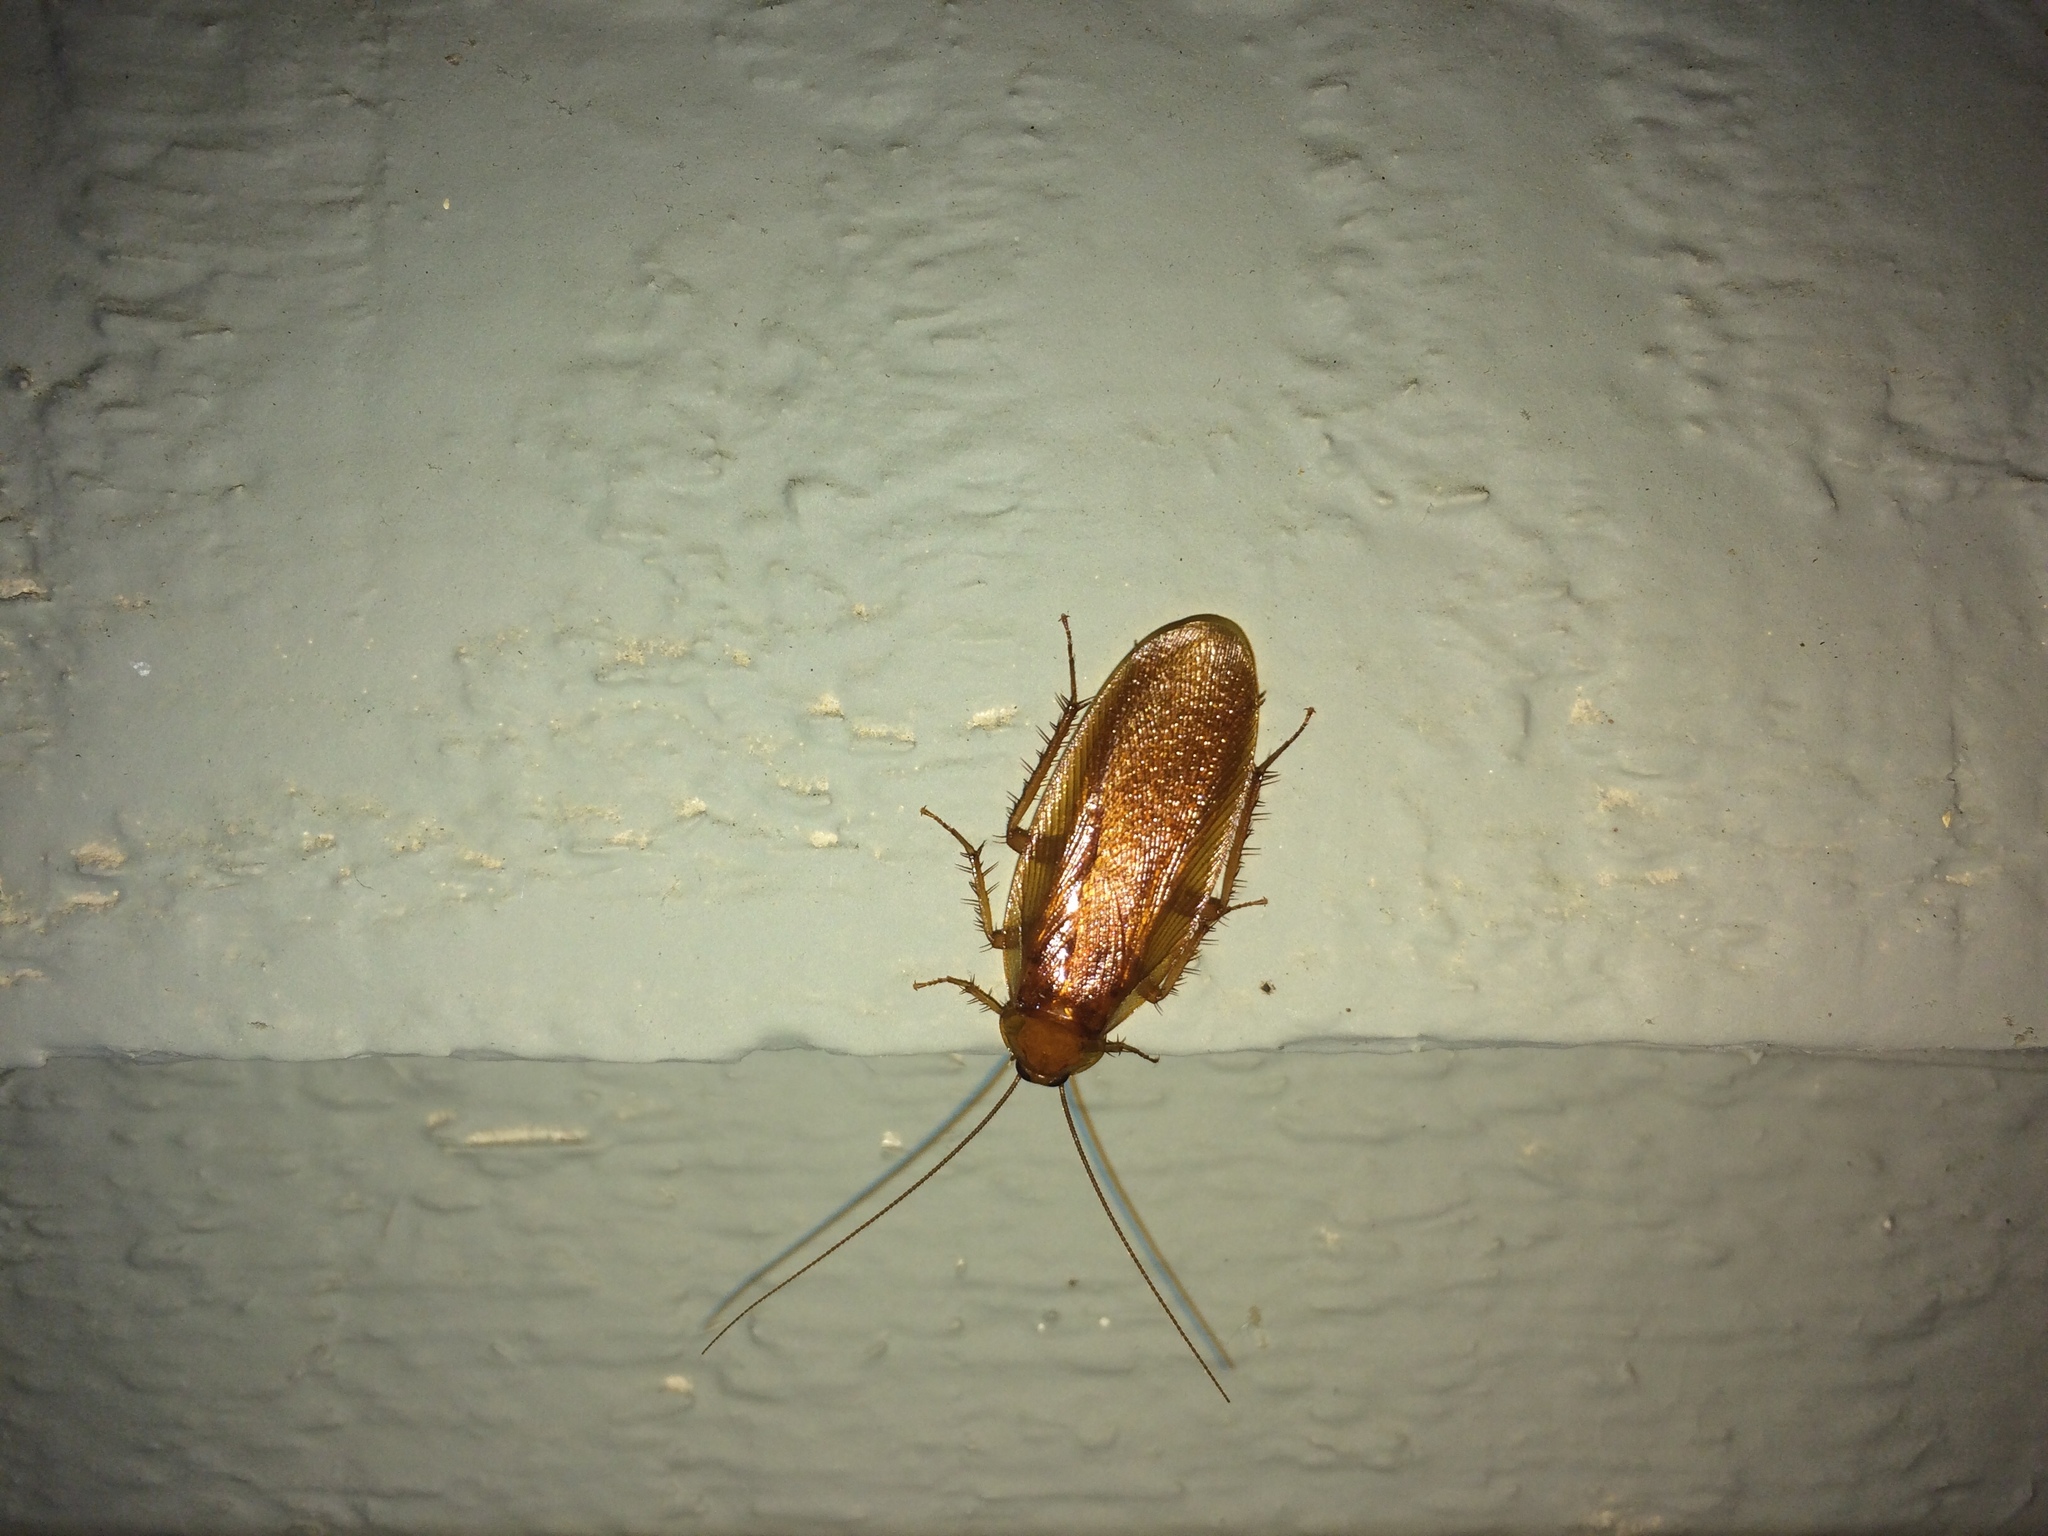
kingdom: Animalia
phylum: Arthropoda
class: Insecta
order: Blattodea
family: Ectobiidae
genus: Parcoblatta
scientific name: Parcoblatta virginica
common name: Virginia wood cockroach
